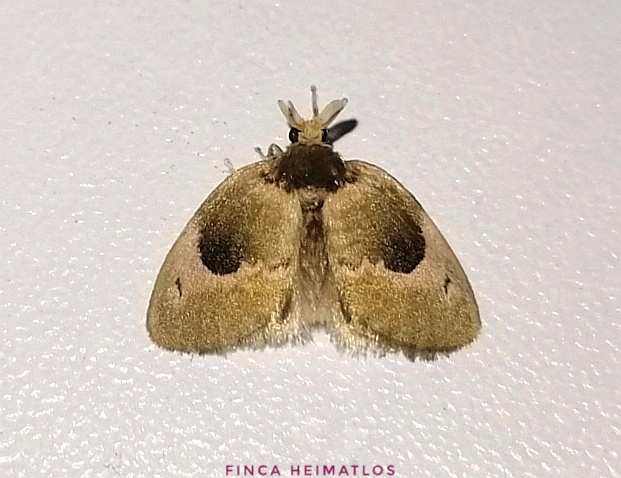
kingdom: Animalia
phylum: Arthropoda
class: Insecta
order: Lepidoptera
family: Megalopygidae
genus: Megalopyge
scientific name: Megalopyge obscura
